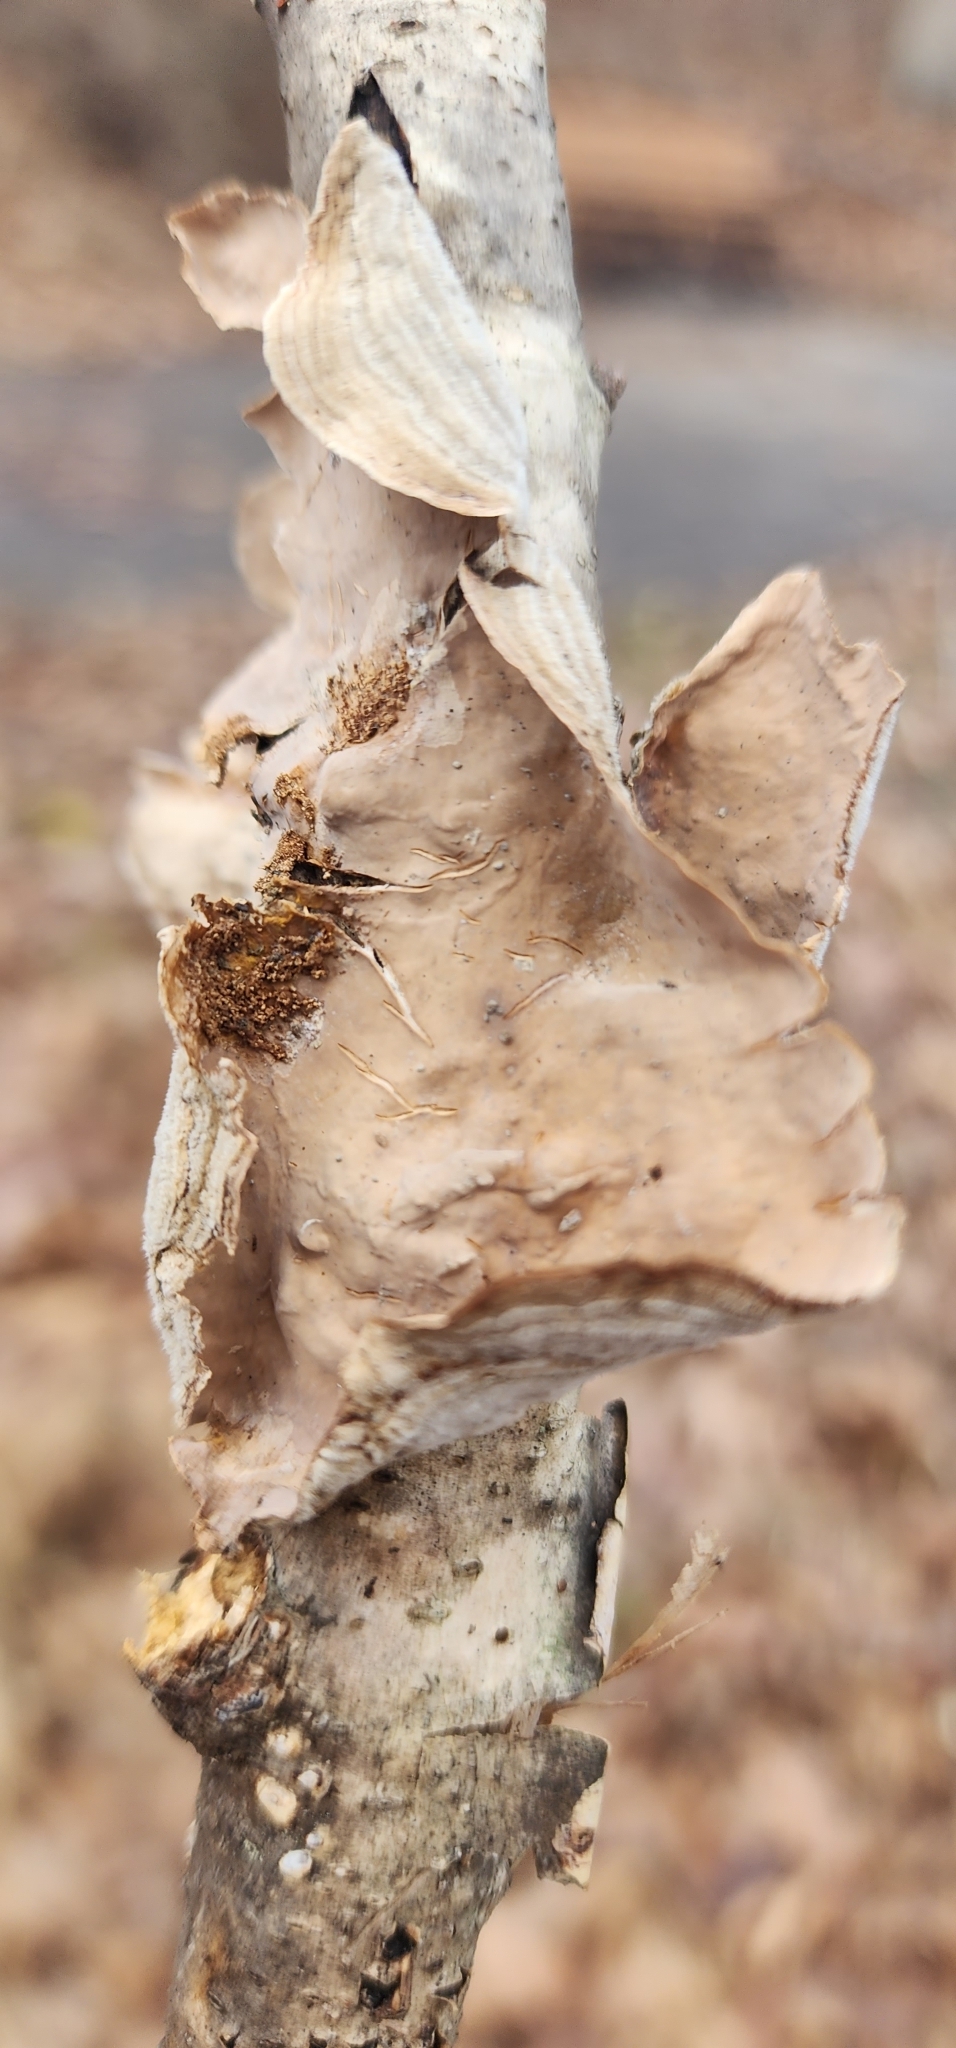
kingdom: Fungi
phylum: Basidiomycota
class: Agaricomycetes
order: Russulales
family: Stereaceae
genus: Stereum
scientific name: Stereum striatum
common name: Silky parchment
